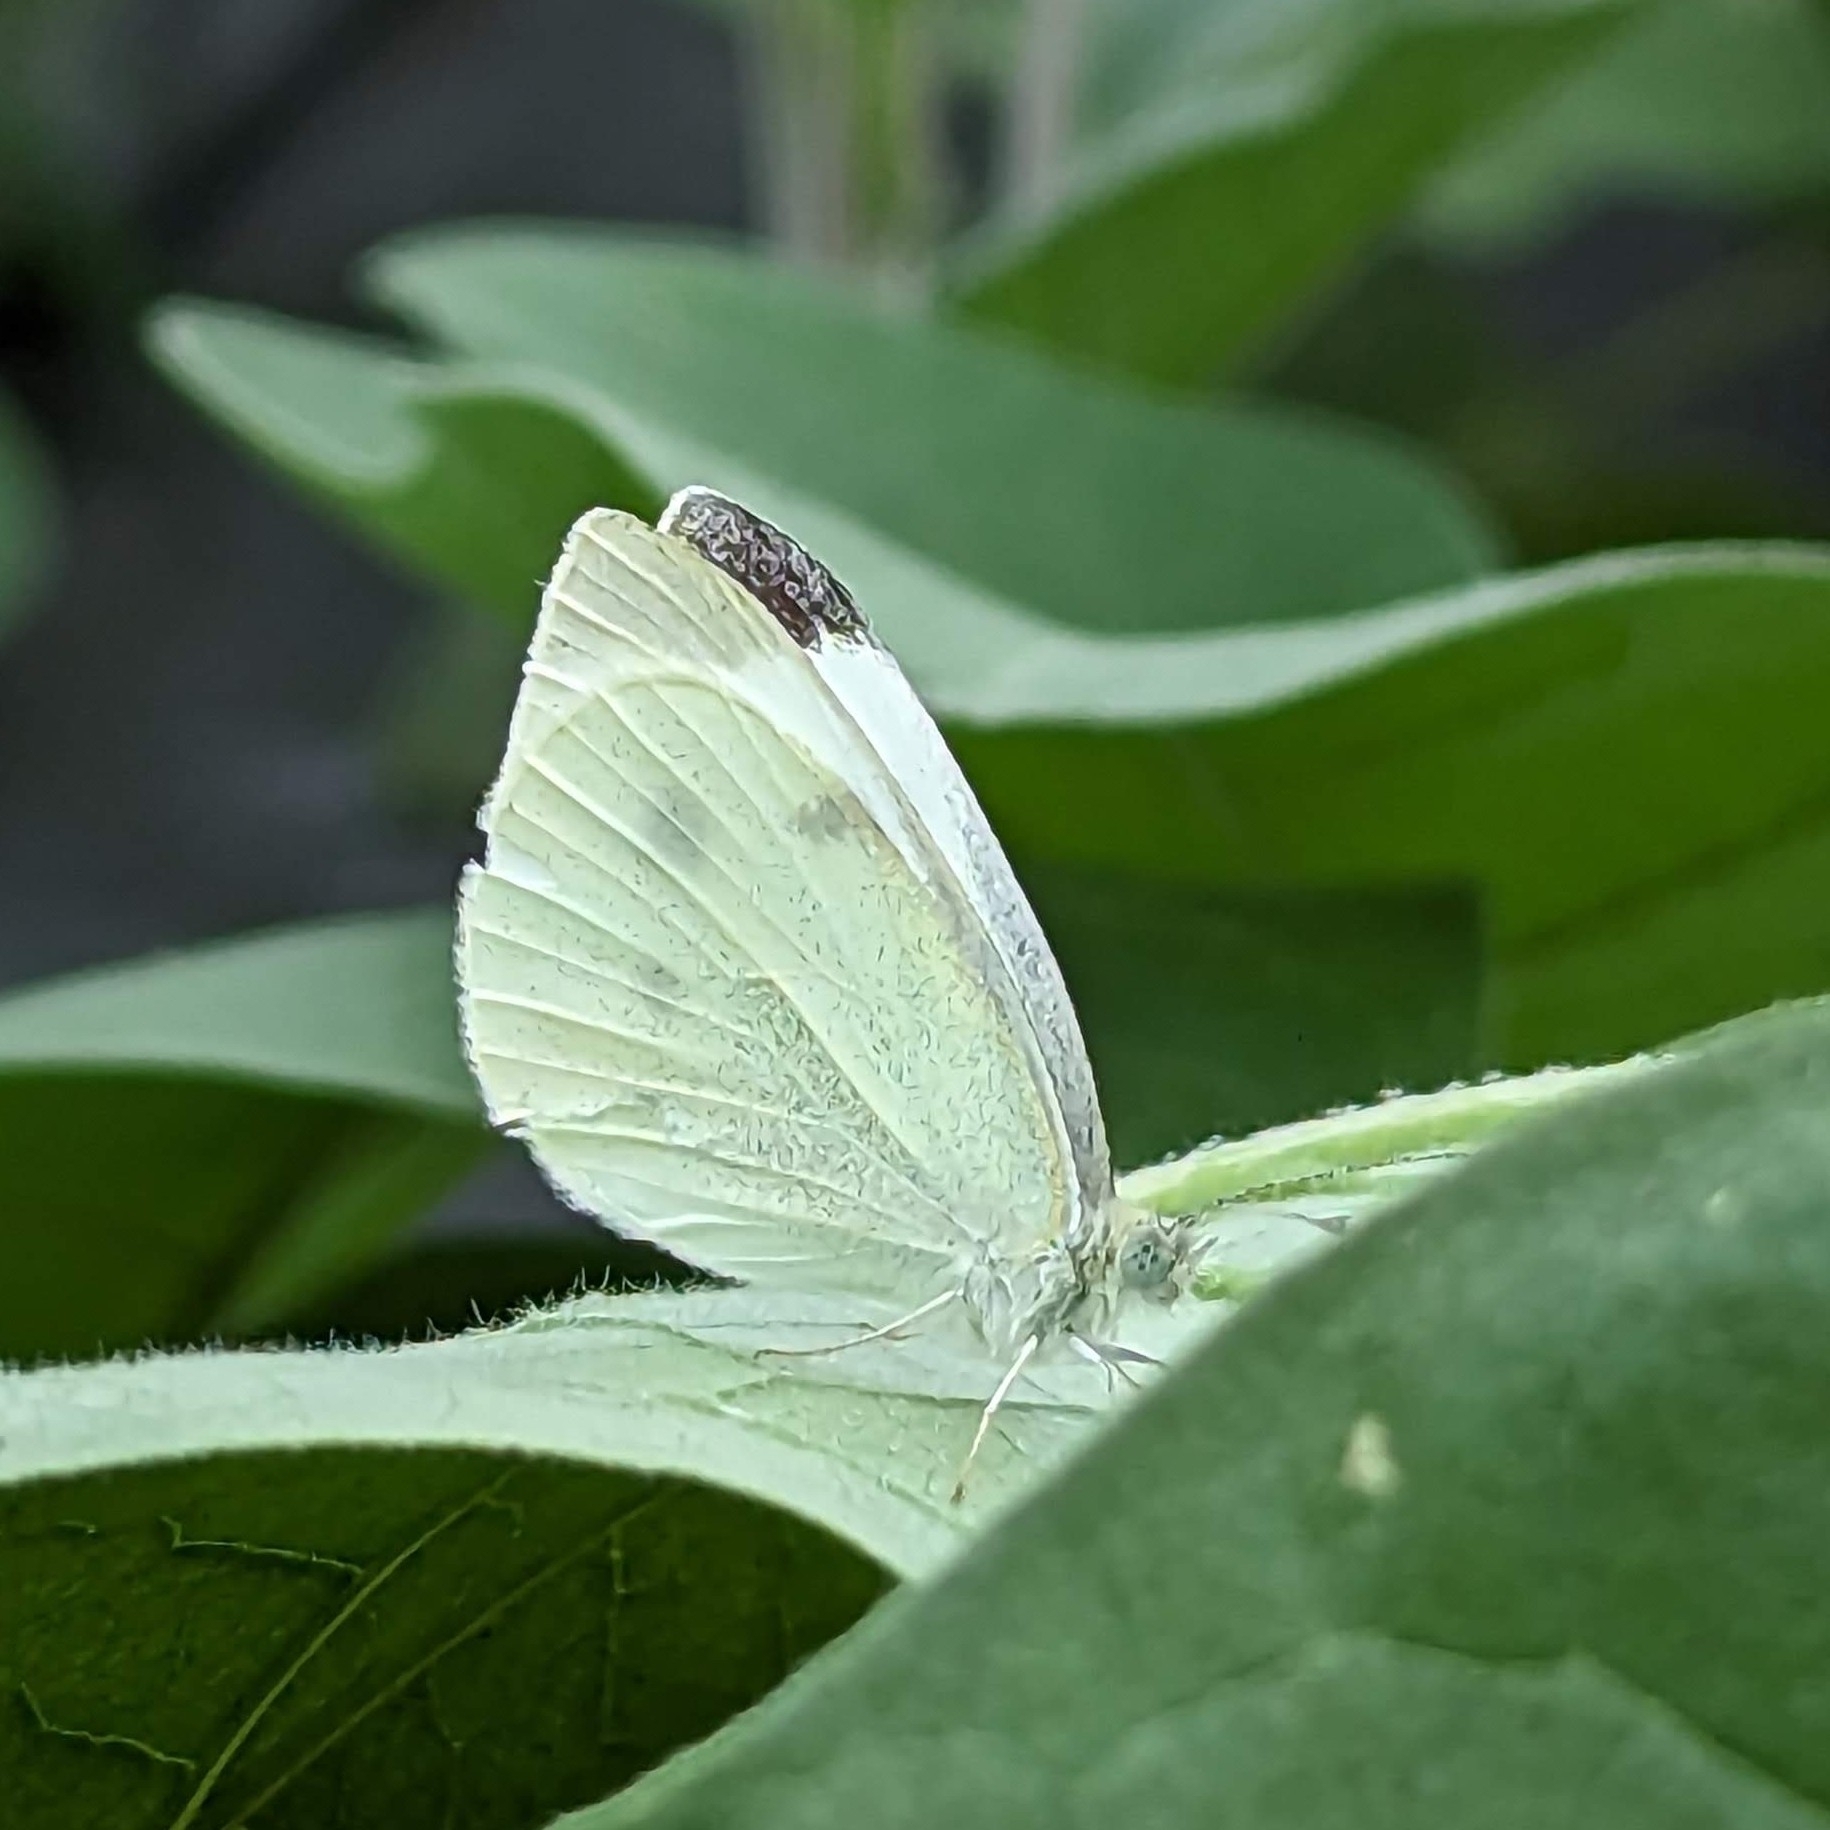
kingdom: Animalia
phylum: Arthropoda
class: Insecta
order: Lepidoptera
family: Pieridae
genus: Pieris
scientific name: Pieris rapae
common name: Small white
